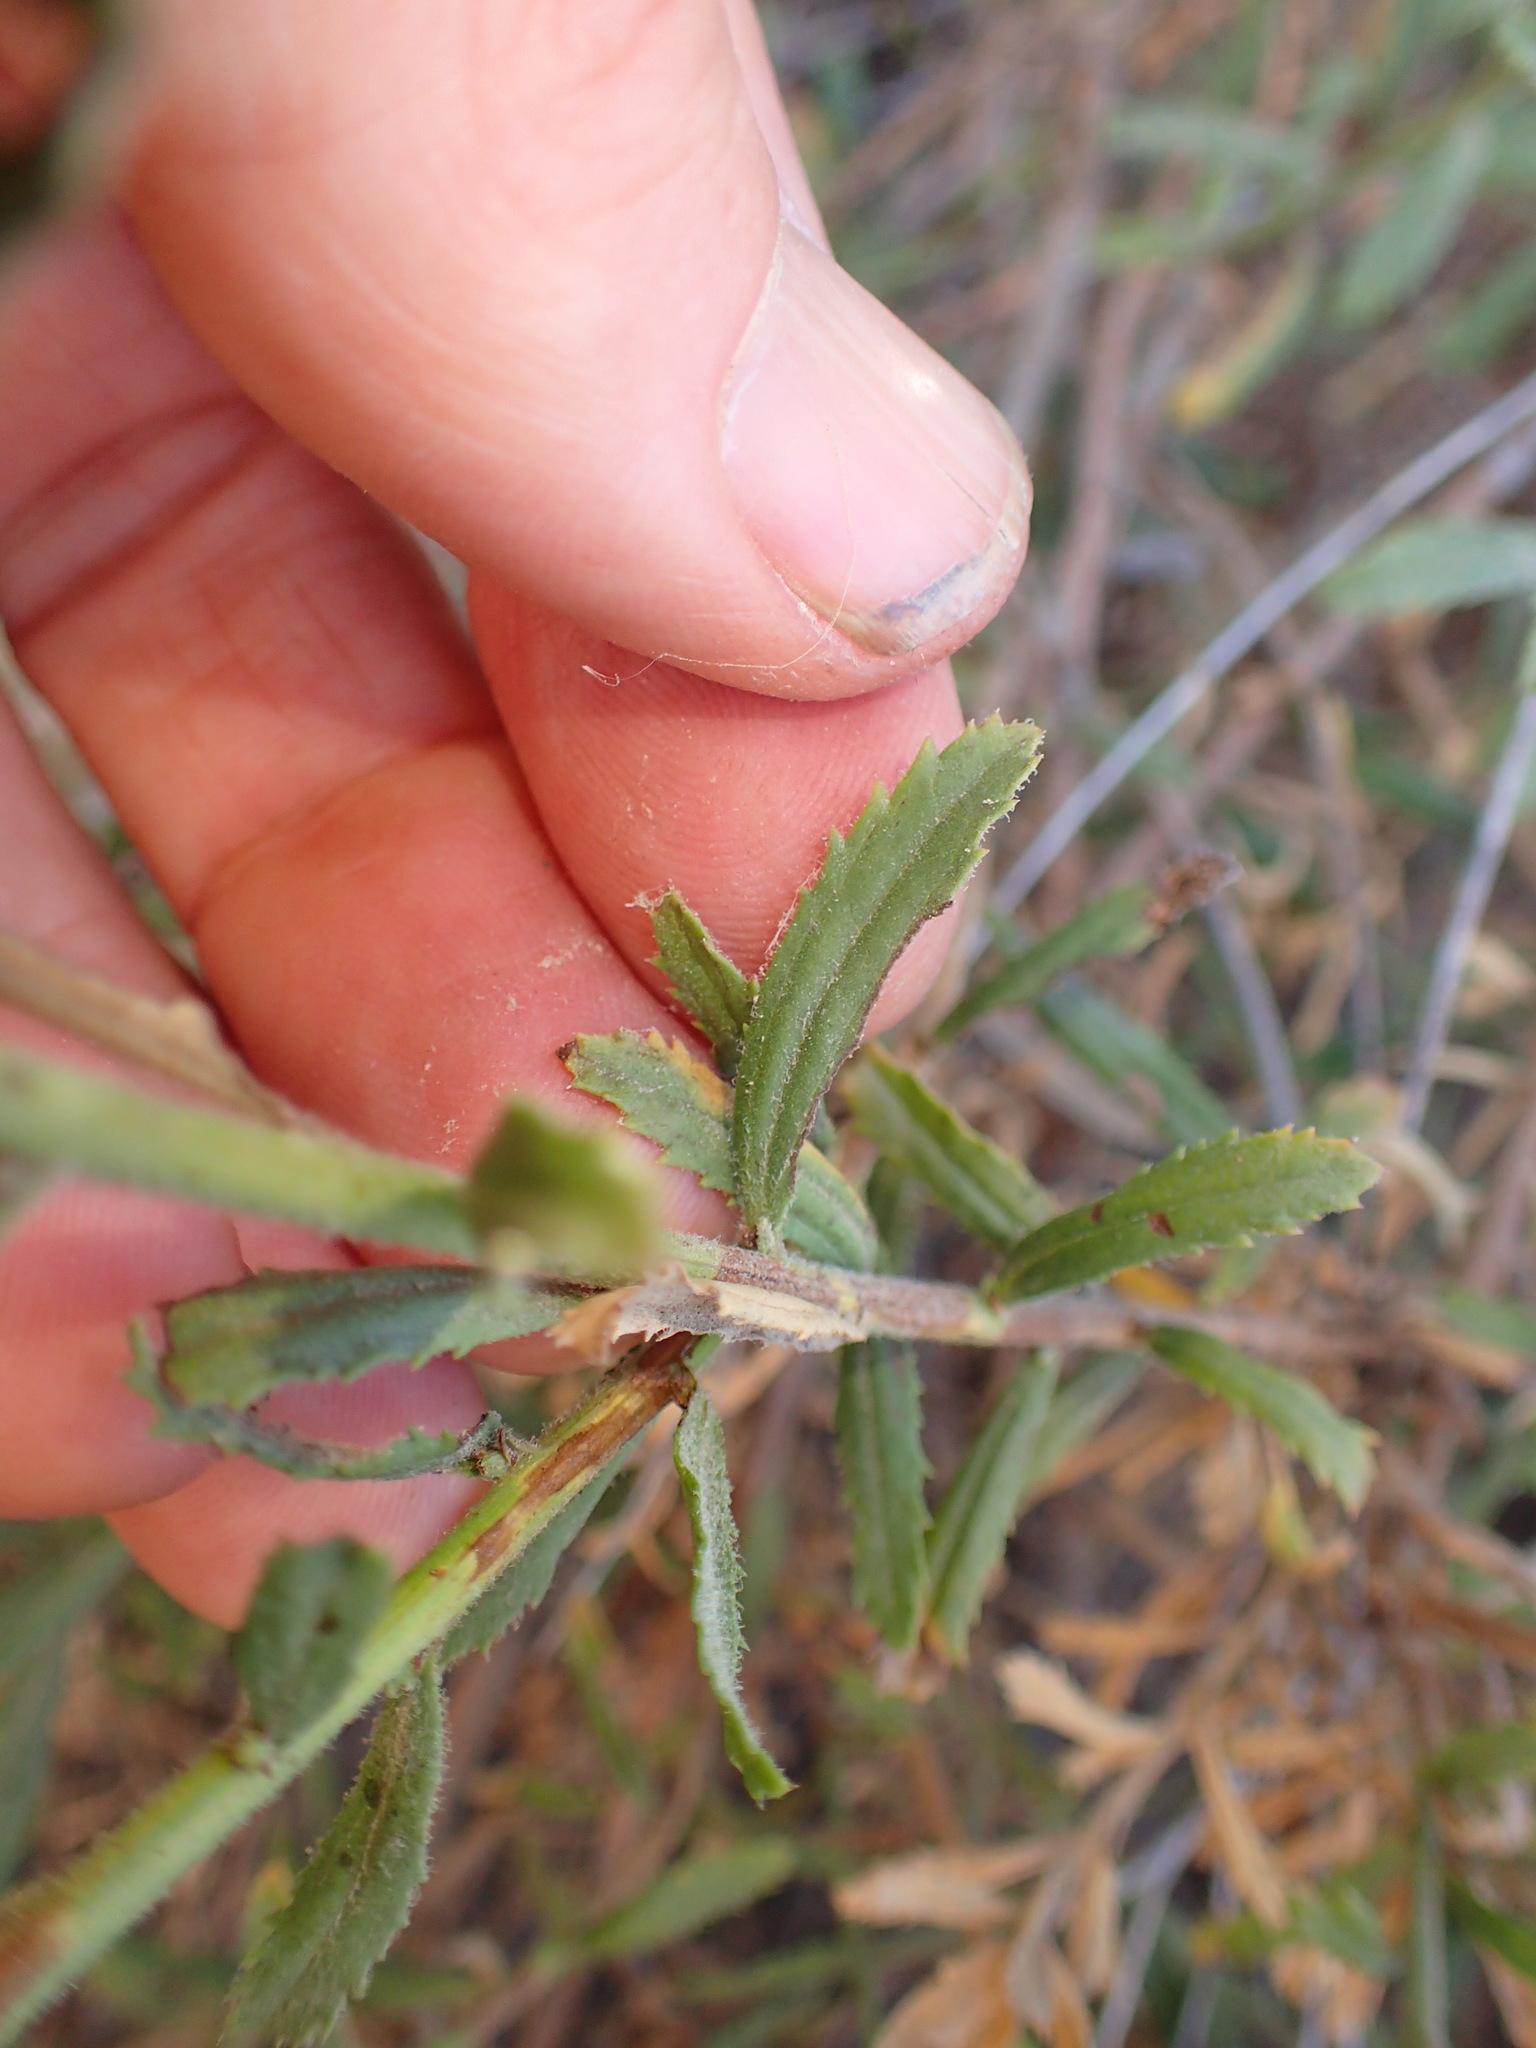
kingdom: Plantae
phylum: Tracheophyta
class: Magnoliopsida
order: Asterales
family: Asteraceae
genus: Baccharis
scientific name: Baccharis plummerae
